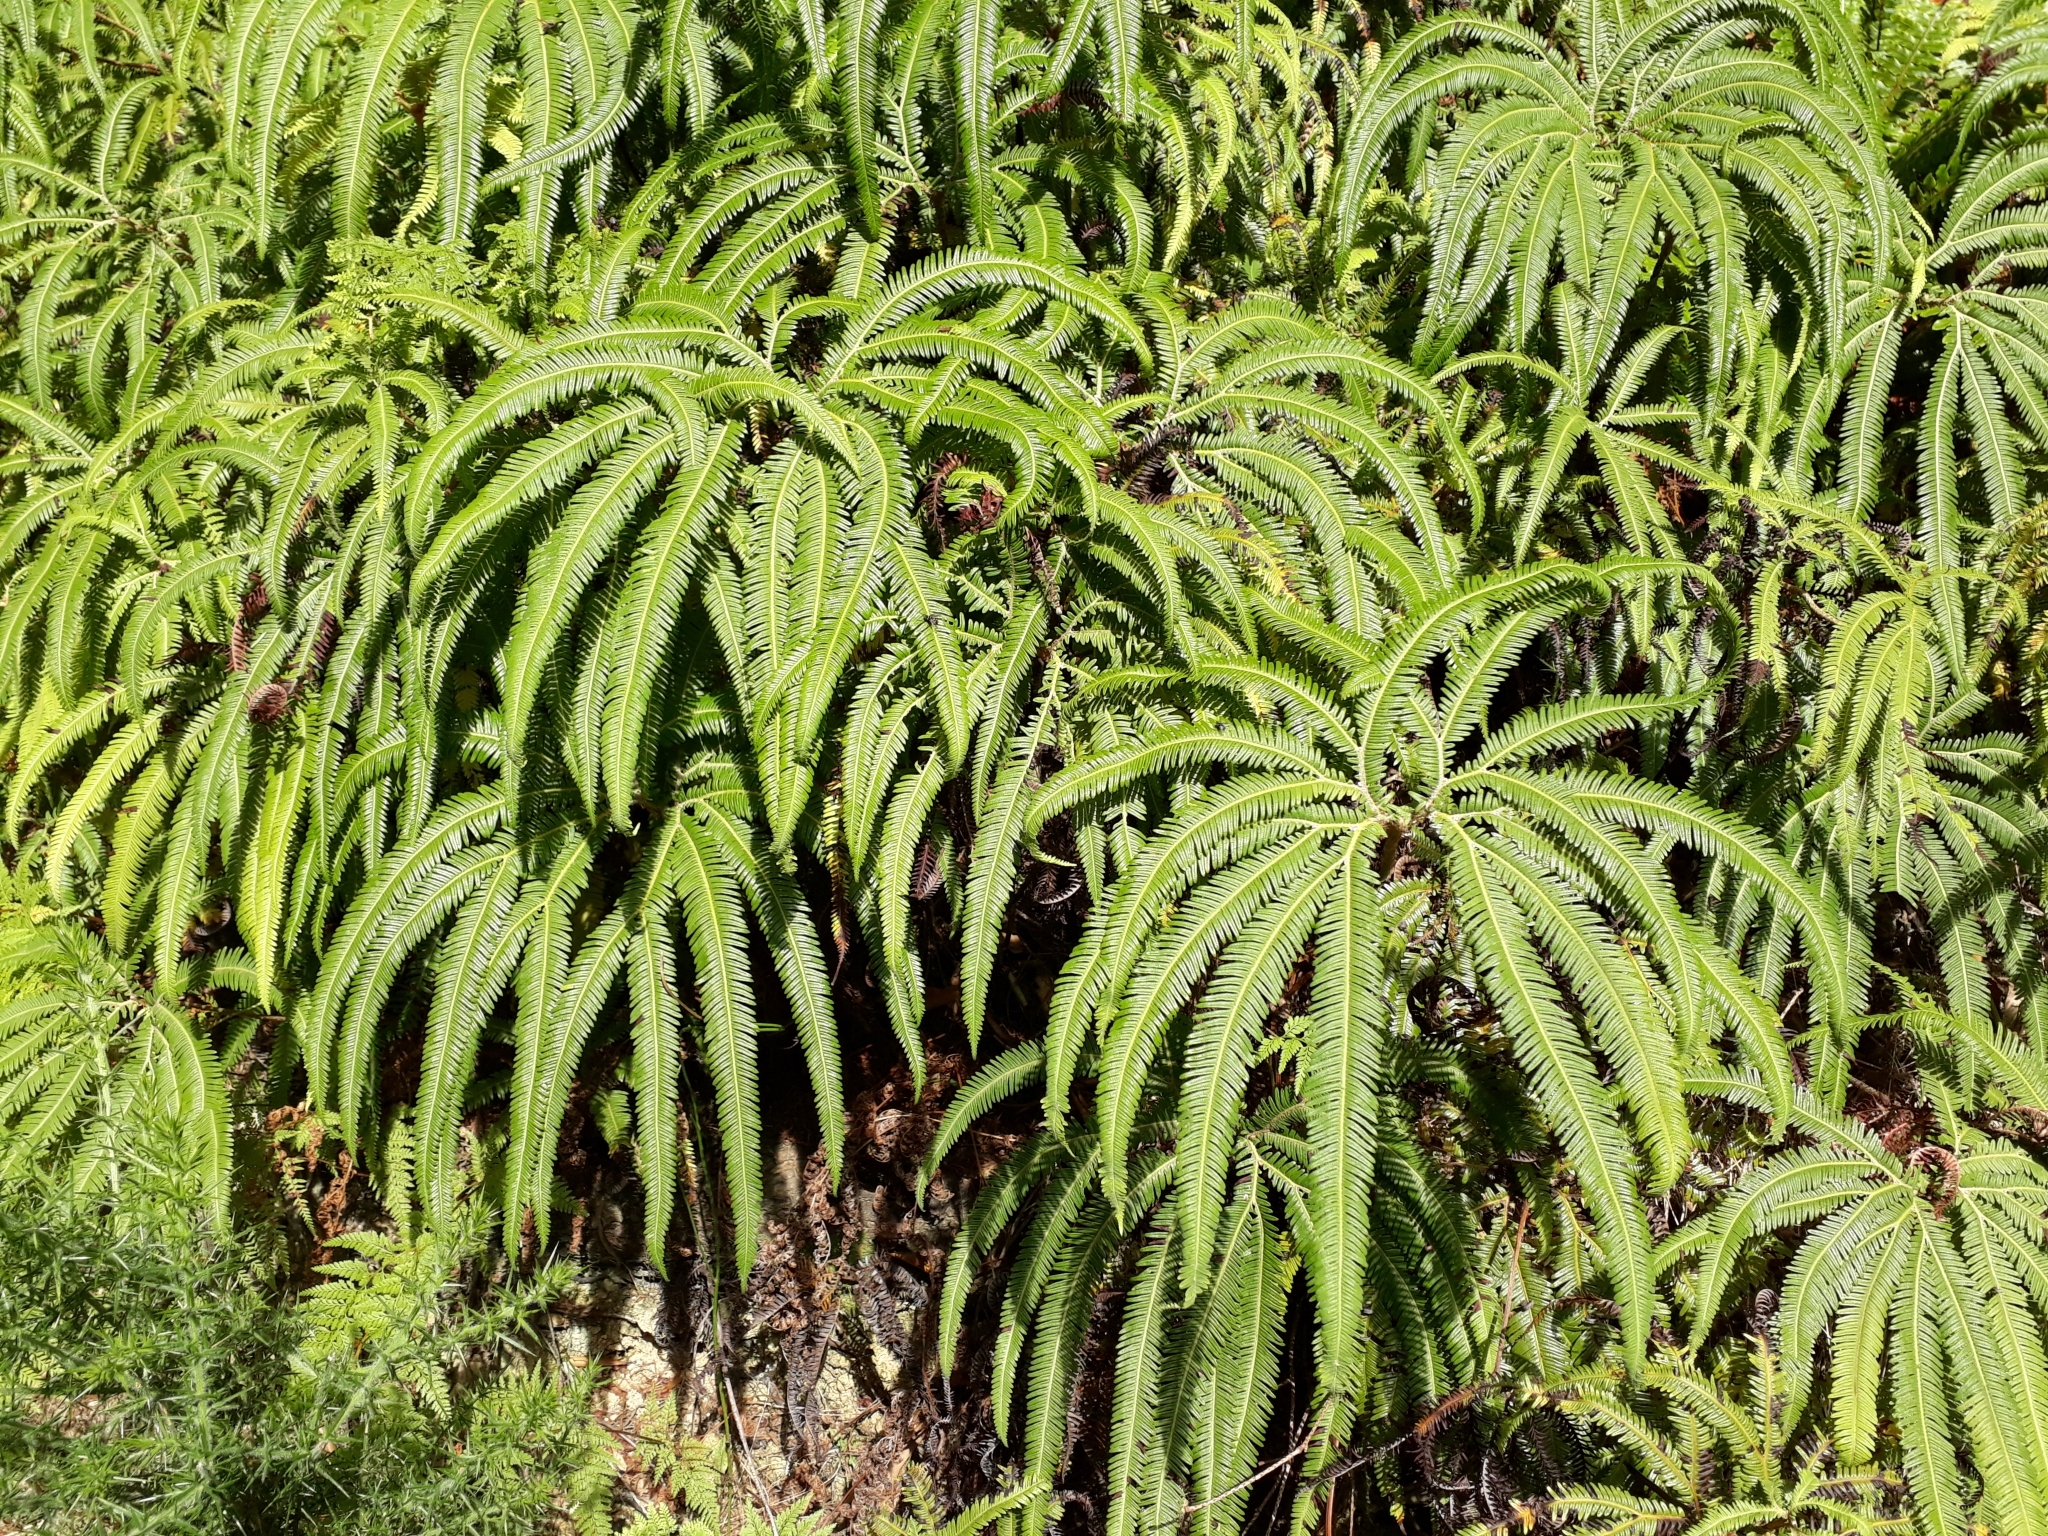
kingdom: Plantae
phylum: Tracheophyta
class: Polypodiopsida
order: Gleicheniales
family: Gleicheniaceae
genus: Sticherus
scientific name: Sticherus cunninghamii
